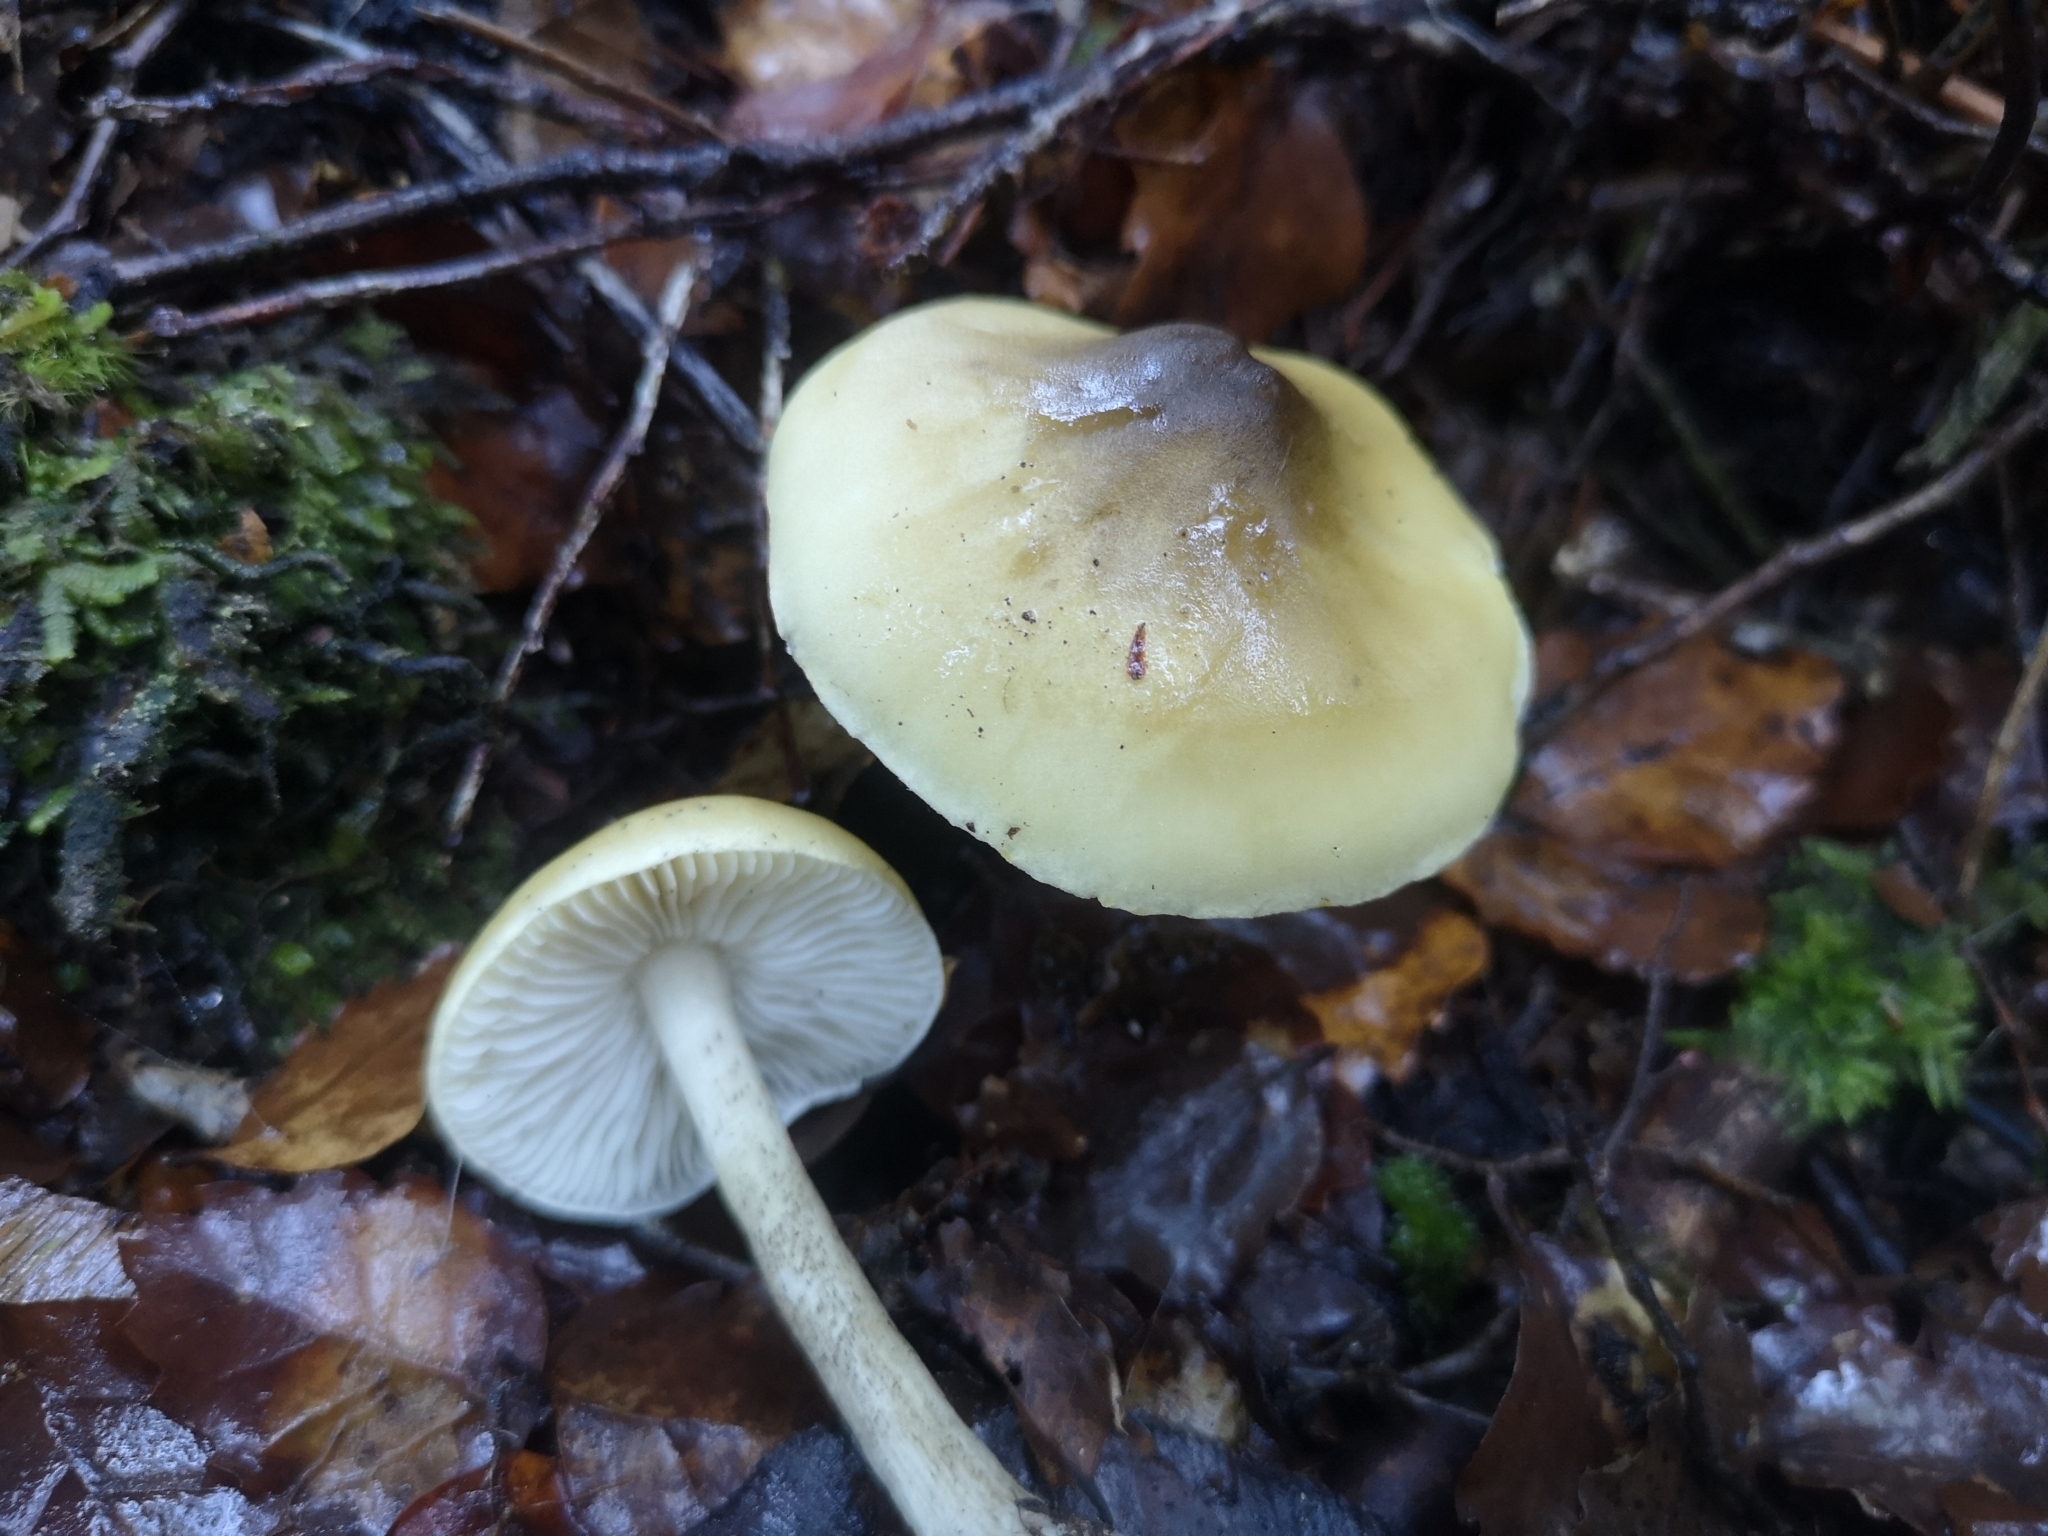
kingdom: Fungi
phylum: Basidiomycota
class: Agaricomycetes
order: Agaricales
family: Tricholomataceae
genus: Tricholoma
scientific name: Tricholoma viridiolivaceum
